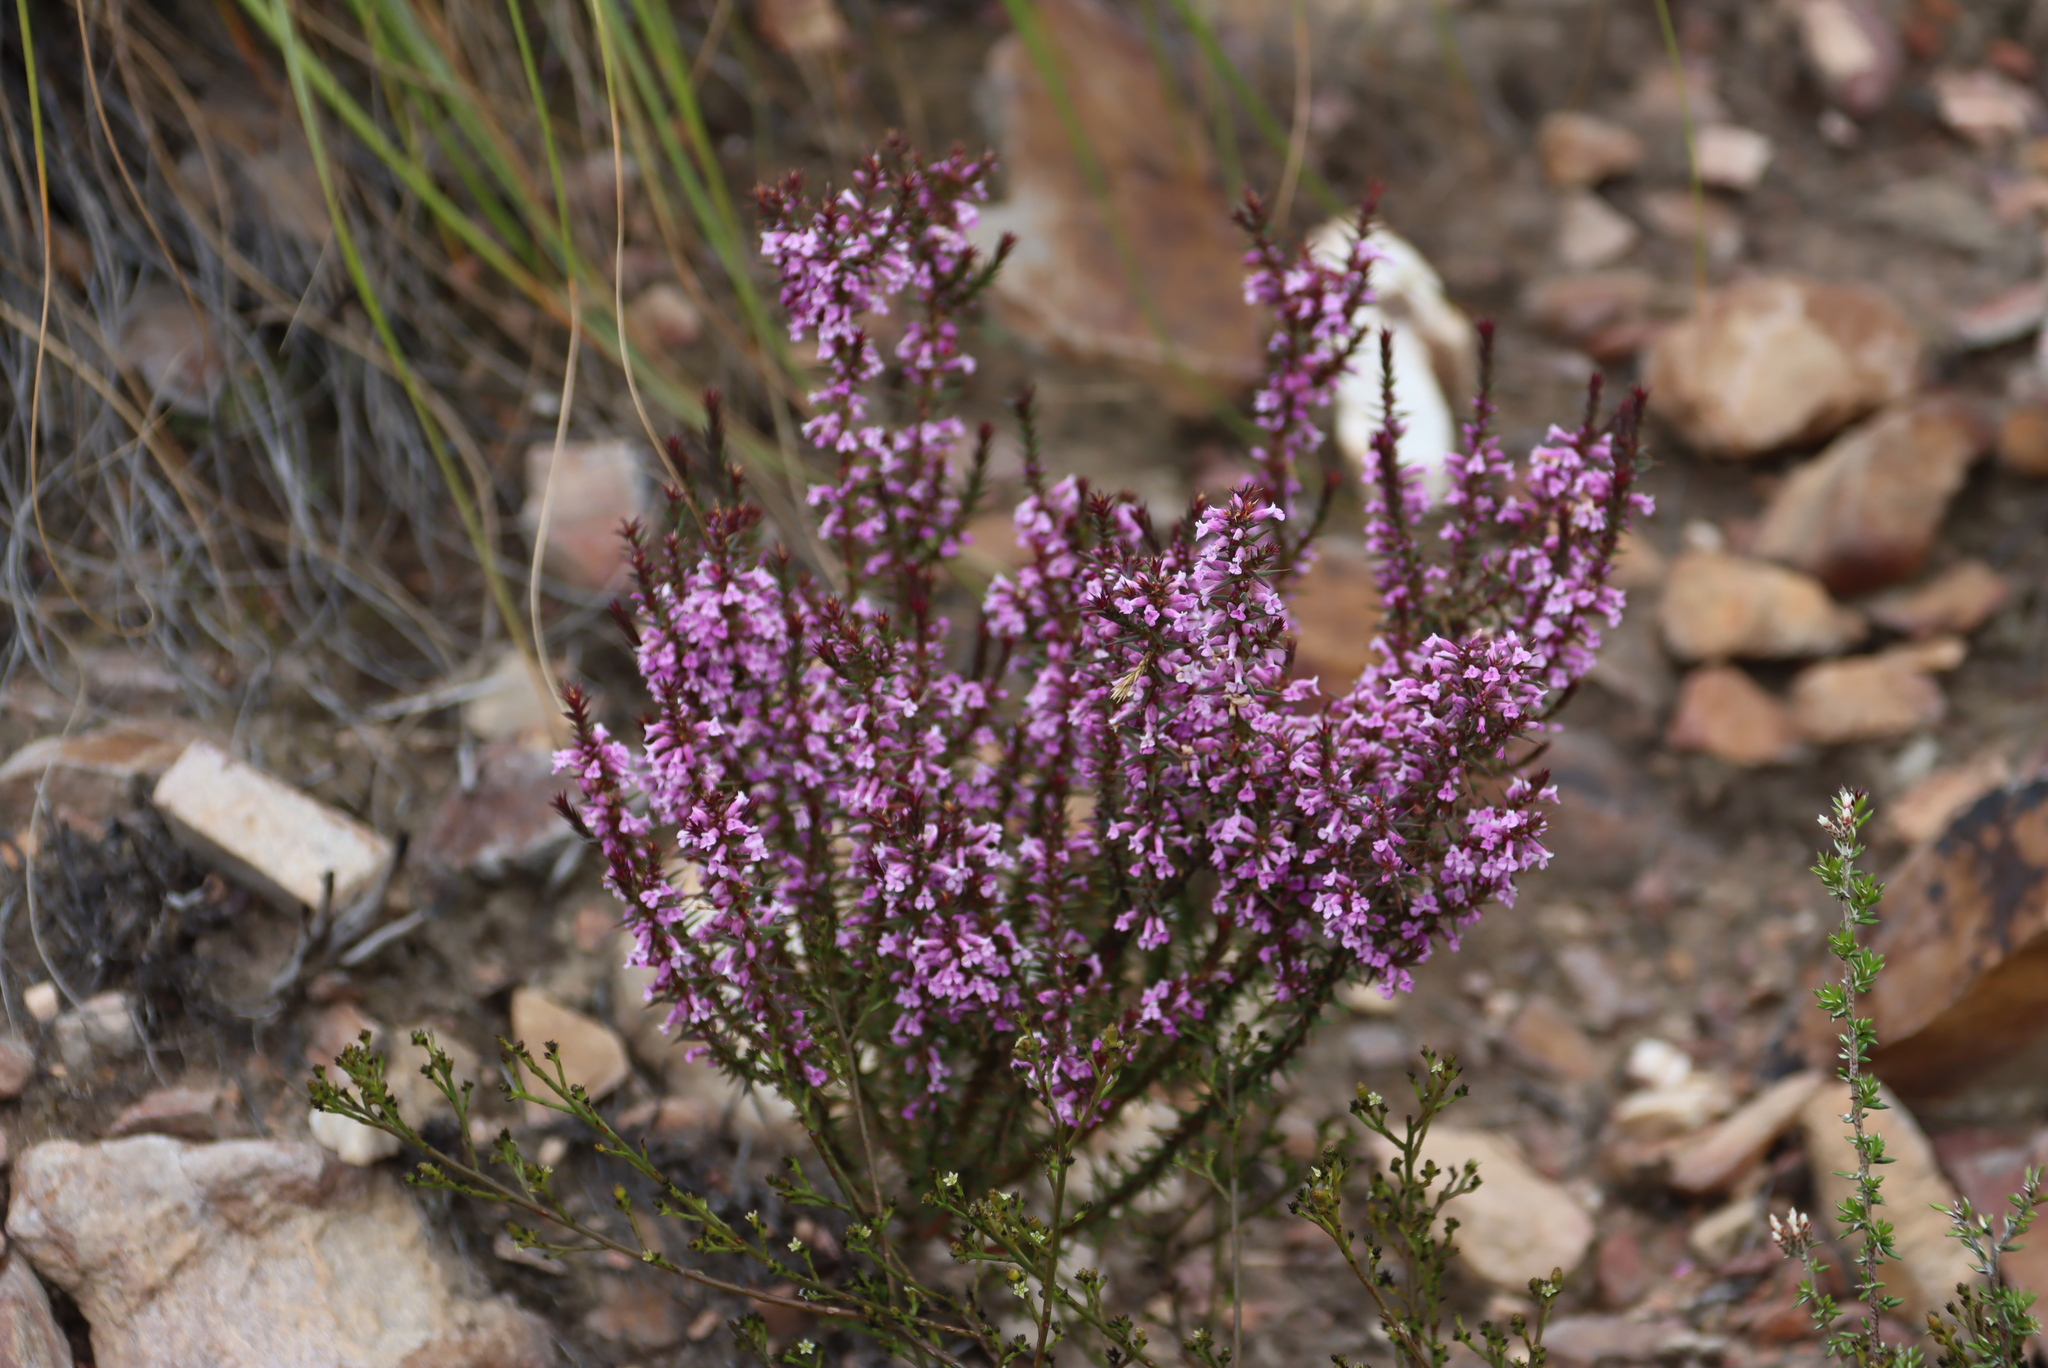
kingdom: Plantae
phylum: Tracheophyta
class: Magnoliopsida
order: Fabales
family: Polygalaceae
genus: Muraltia
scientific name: Muraltia juniperifolia
